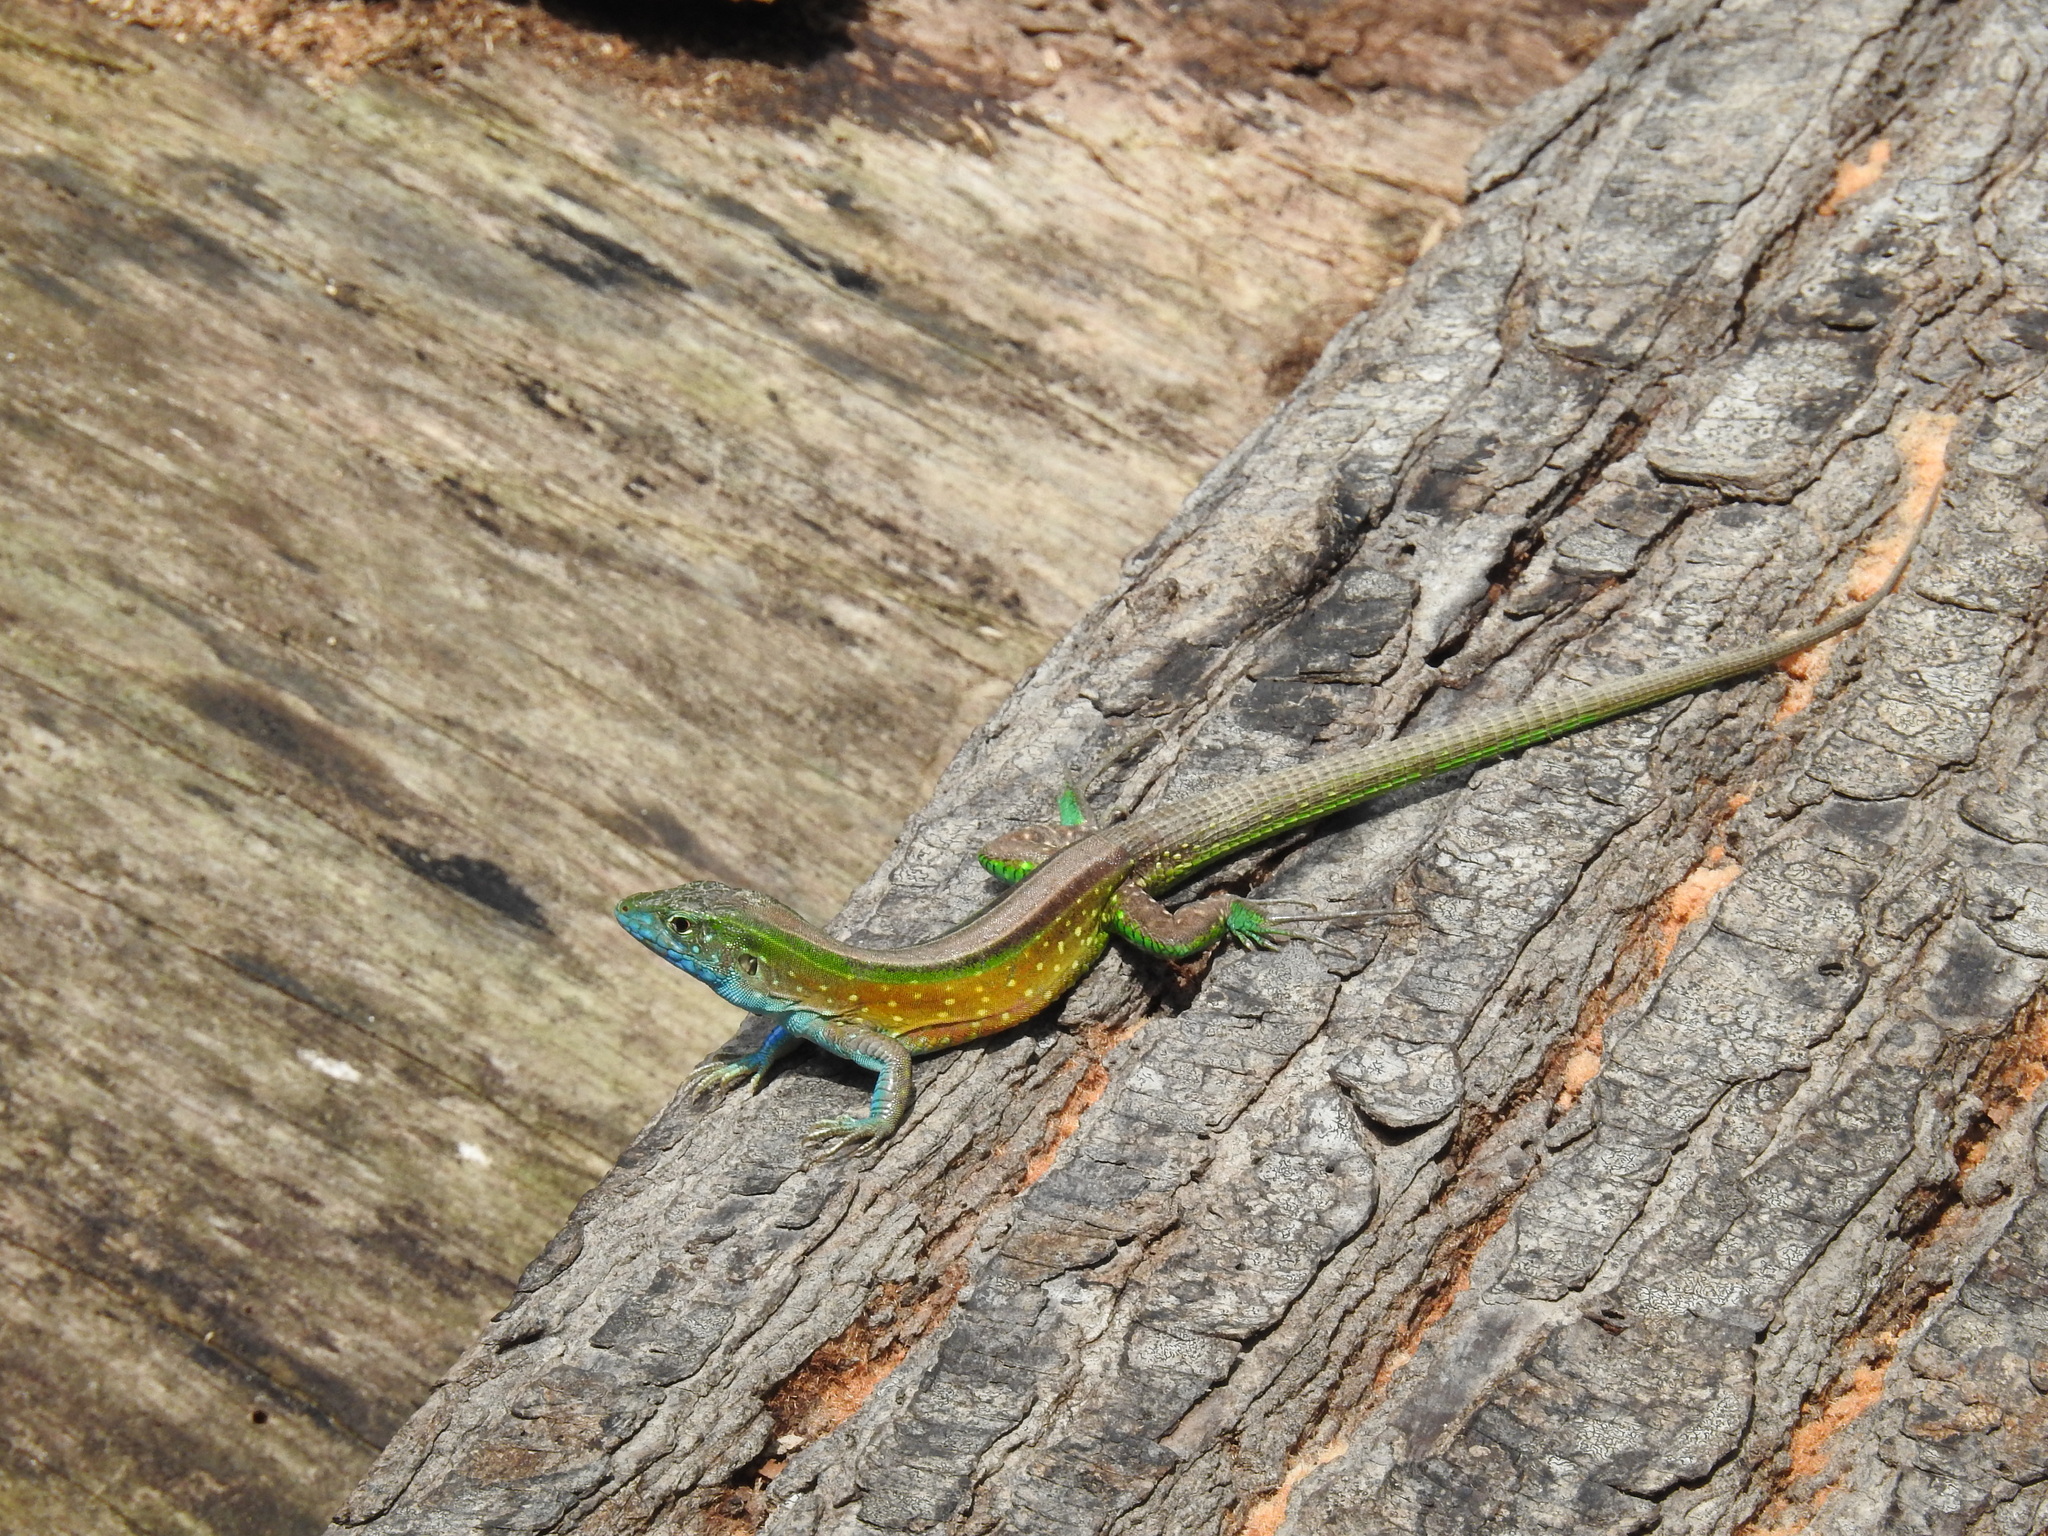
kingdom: Animalia
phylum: Chordata
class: Squamata
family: Teiidae
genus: Cnemidophorus
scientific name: Cnemidophorus gaigei
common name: Gaige’s rainbow lizard
